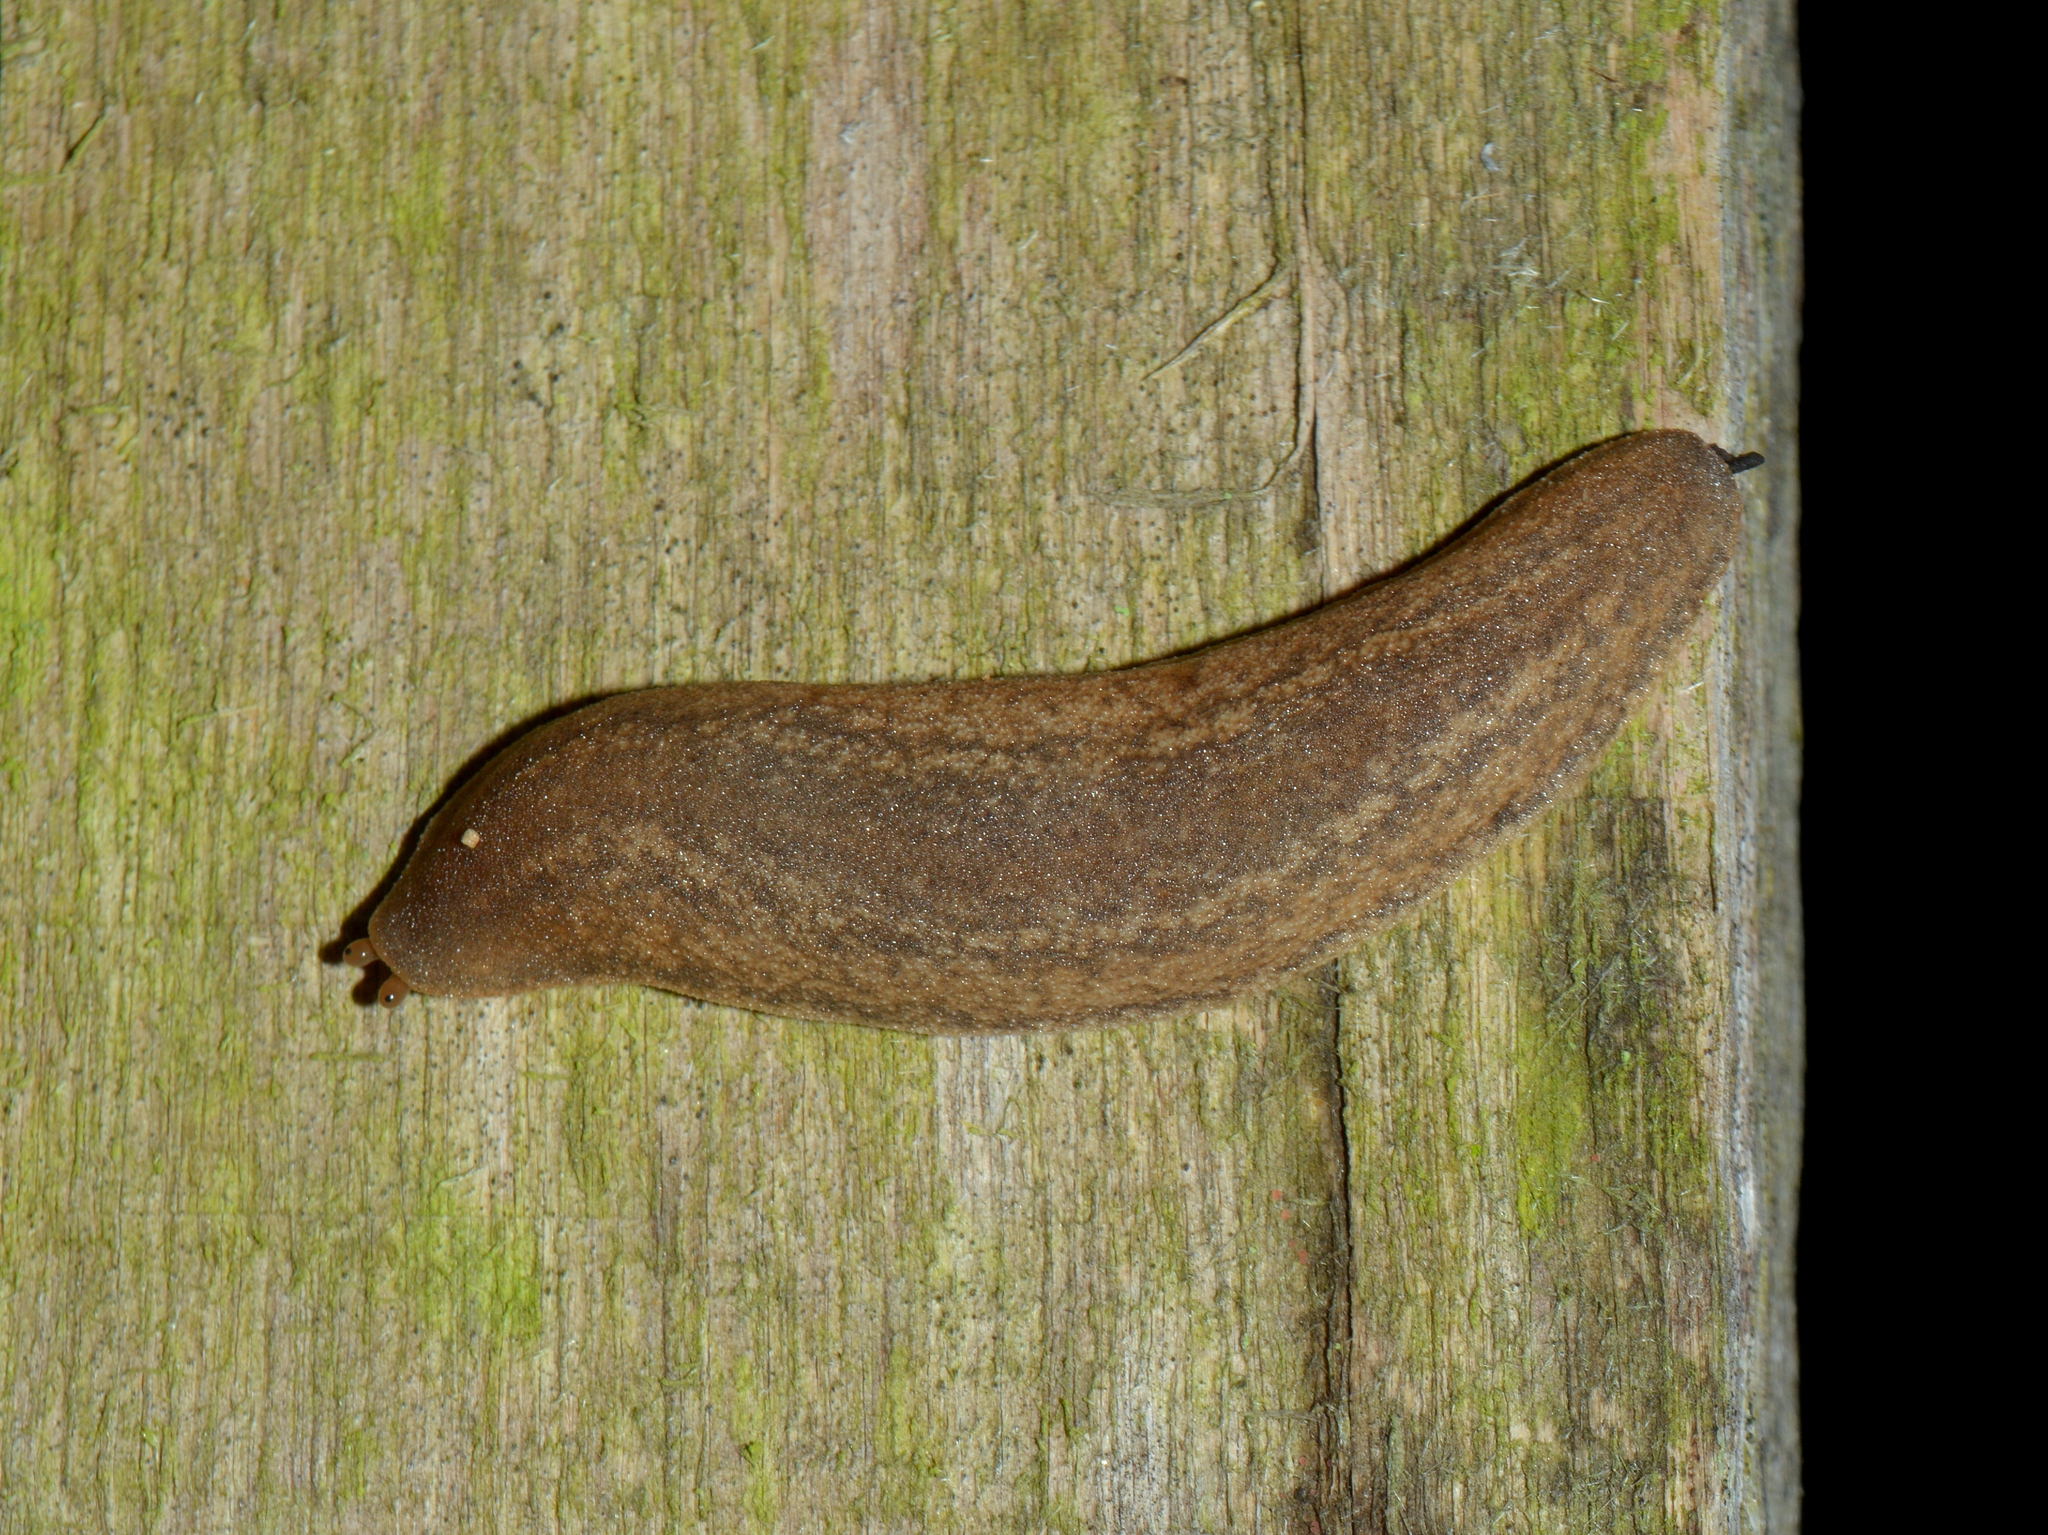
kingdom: Animalia
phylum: Mollusca
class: Gastropoda
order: Systellommatophora
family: Veronicellidae
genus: Phyllocaulis
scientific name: Phyllocaulis renschi
